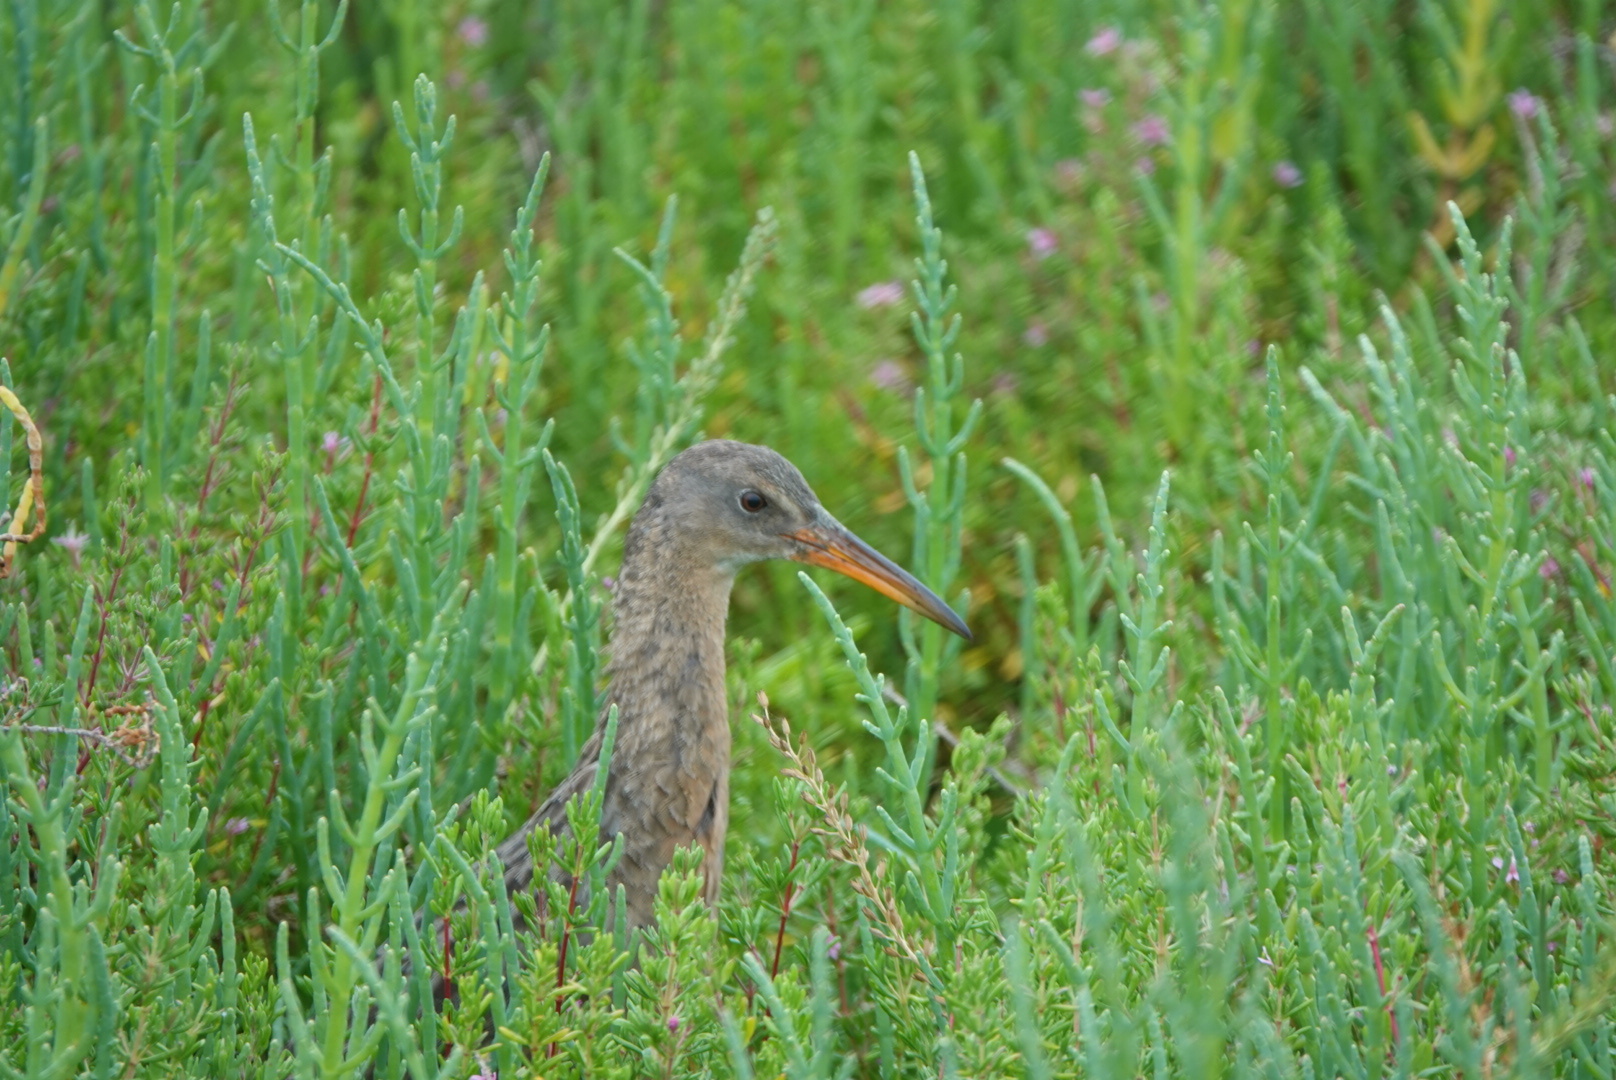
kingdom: Animalia
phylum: Chordata
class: Aves
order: Gruiformes
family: Rallidae
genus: Rallus
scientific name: Rallus obsoletus
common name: Ridgway's rail
